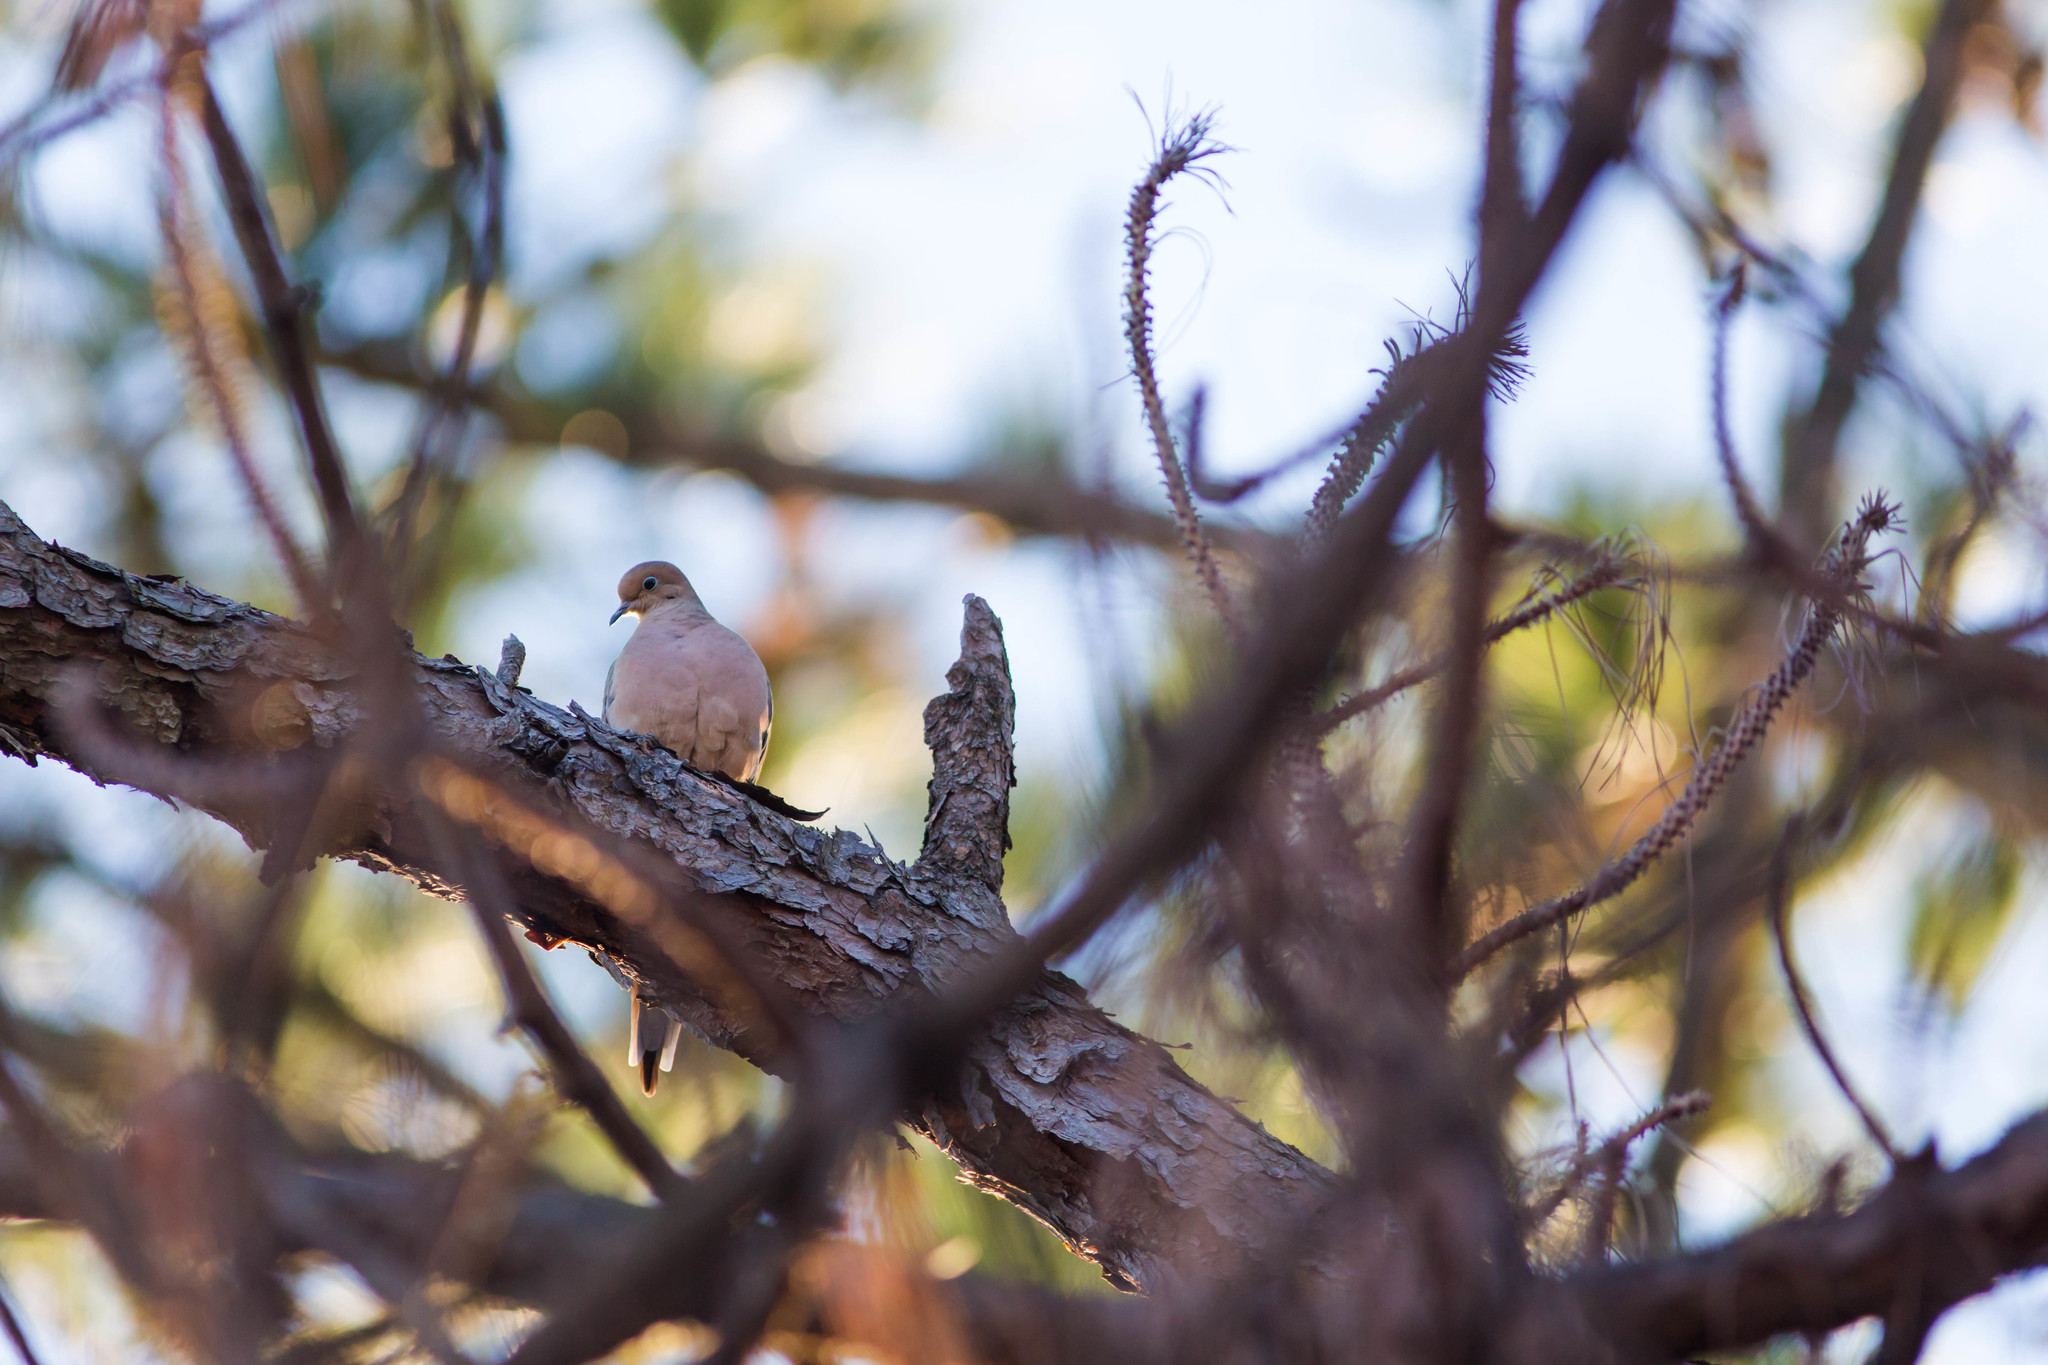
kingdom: Animalia
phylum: Chordata
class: Aves
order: Columbiformes
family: Columbidae
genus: Zenaida
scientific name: Zenaida macroura
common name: Mourning dove
